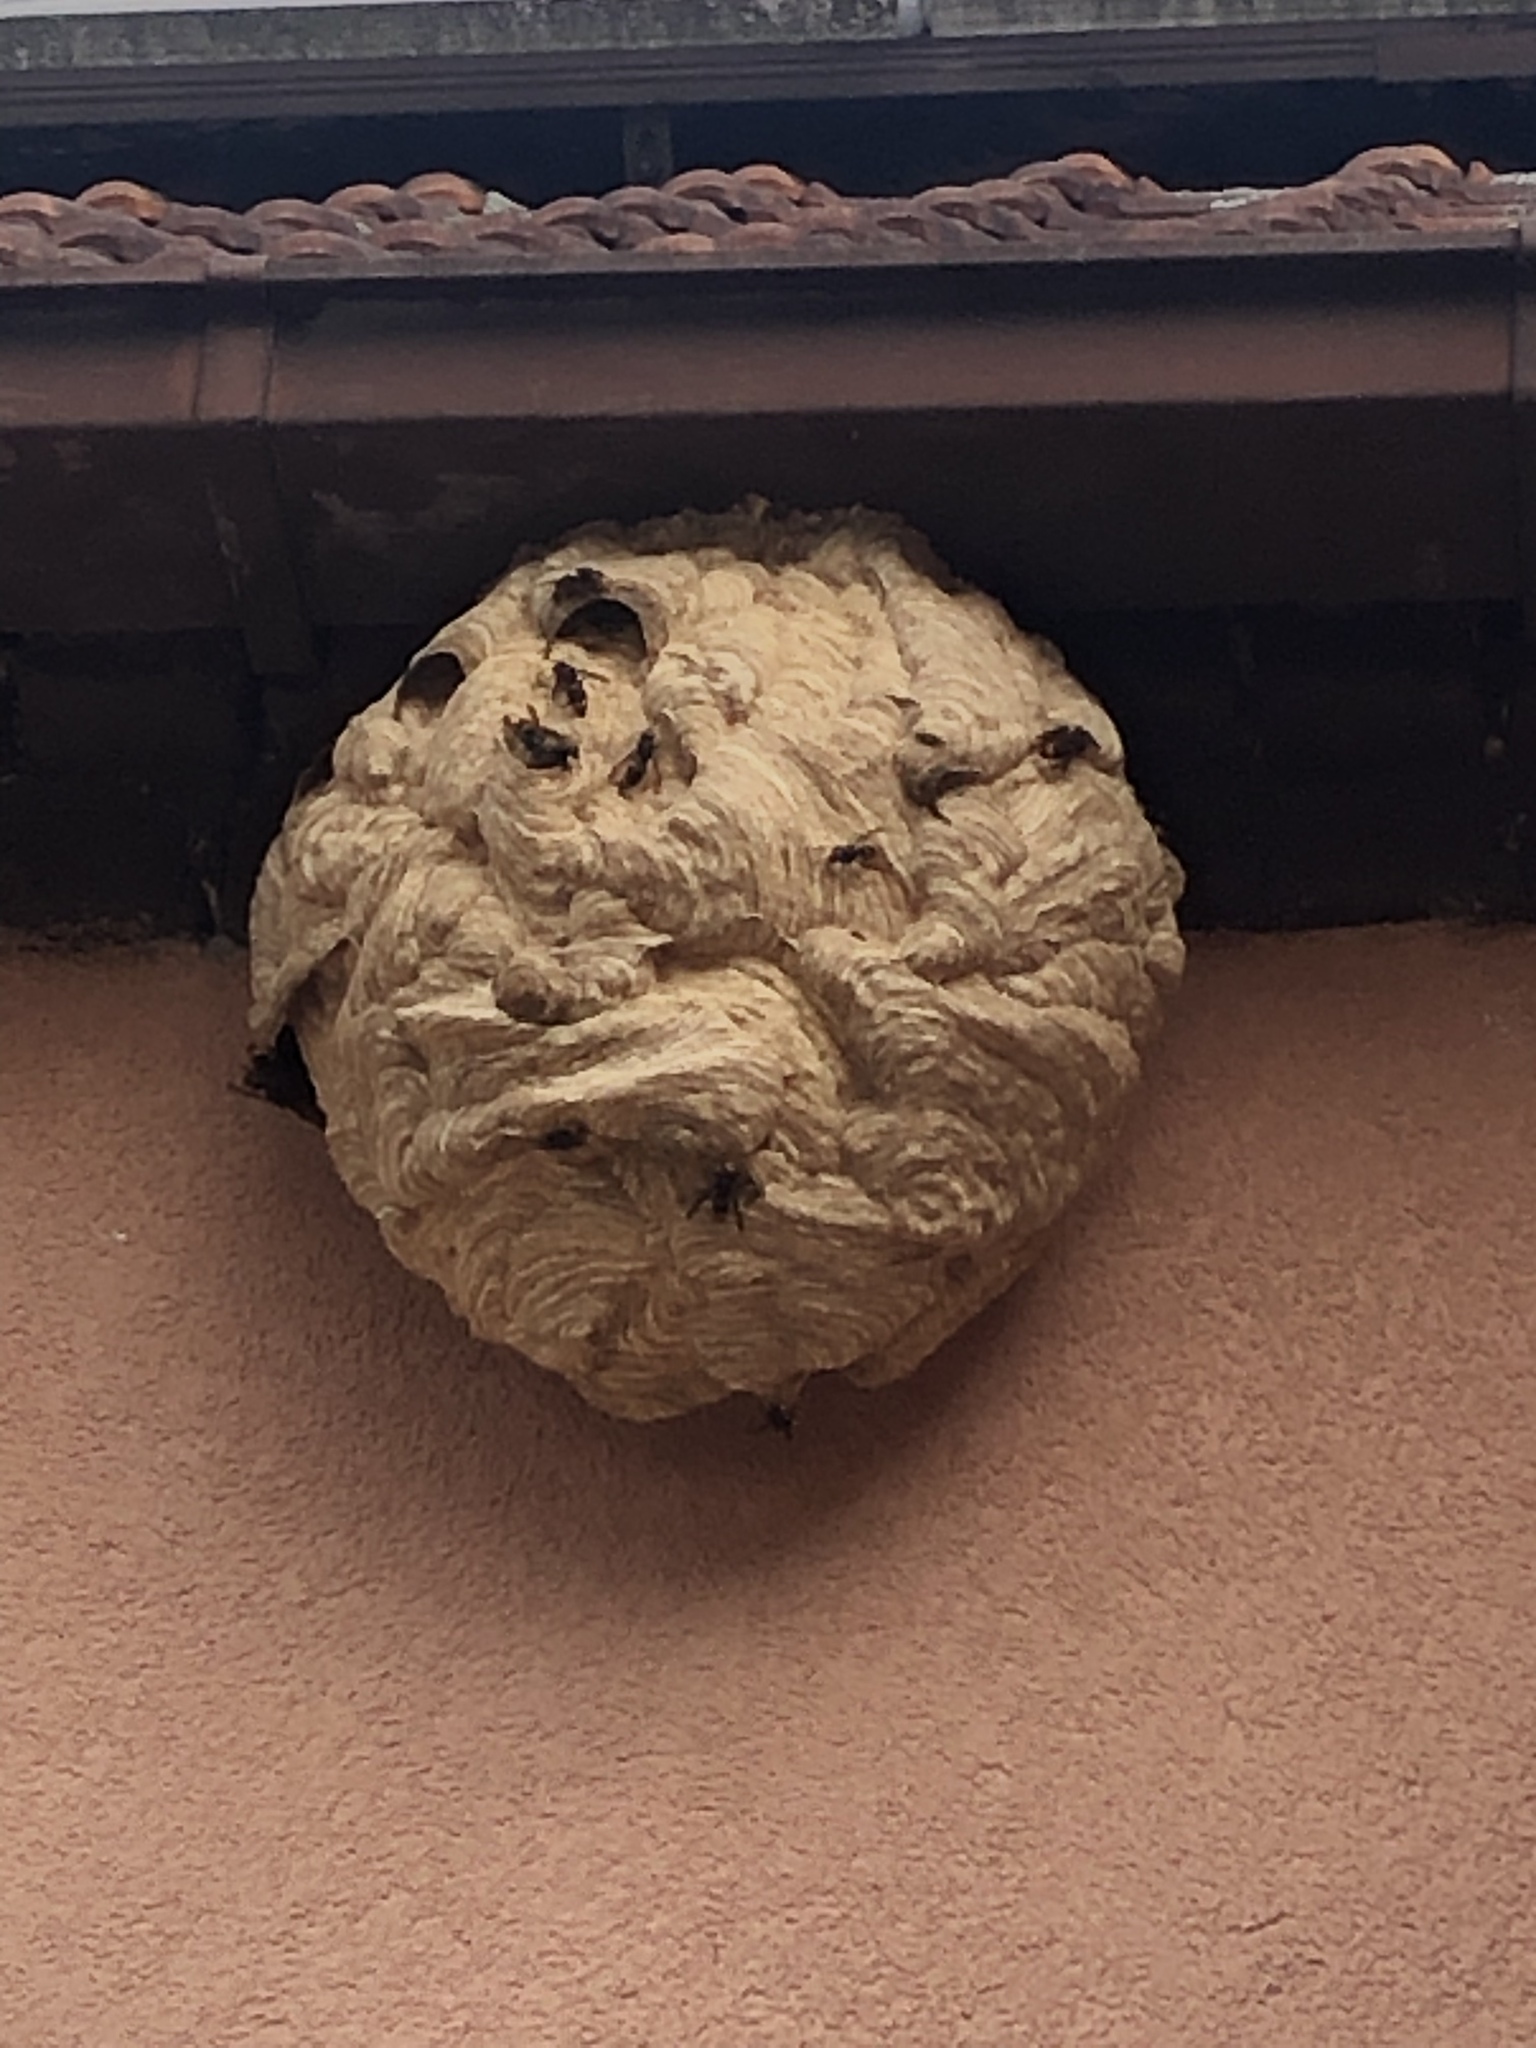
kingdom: Animalia
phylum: Arthropoda
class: Insecta
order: Hymenoptera
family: Vespidae
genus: Vespa
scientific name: Vespa velutina
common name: Asian hornet
